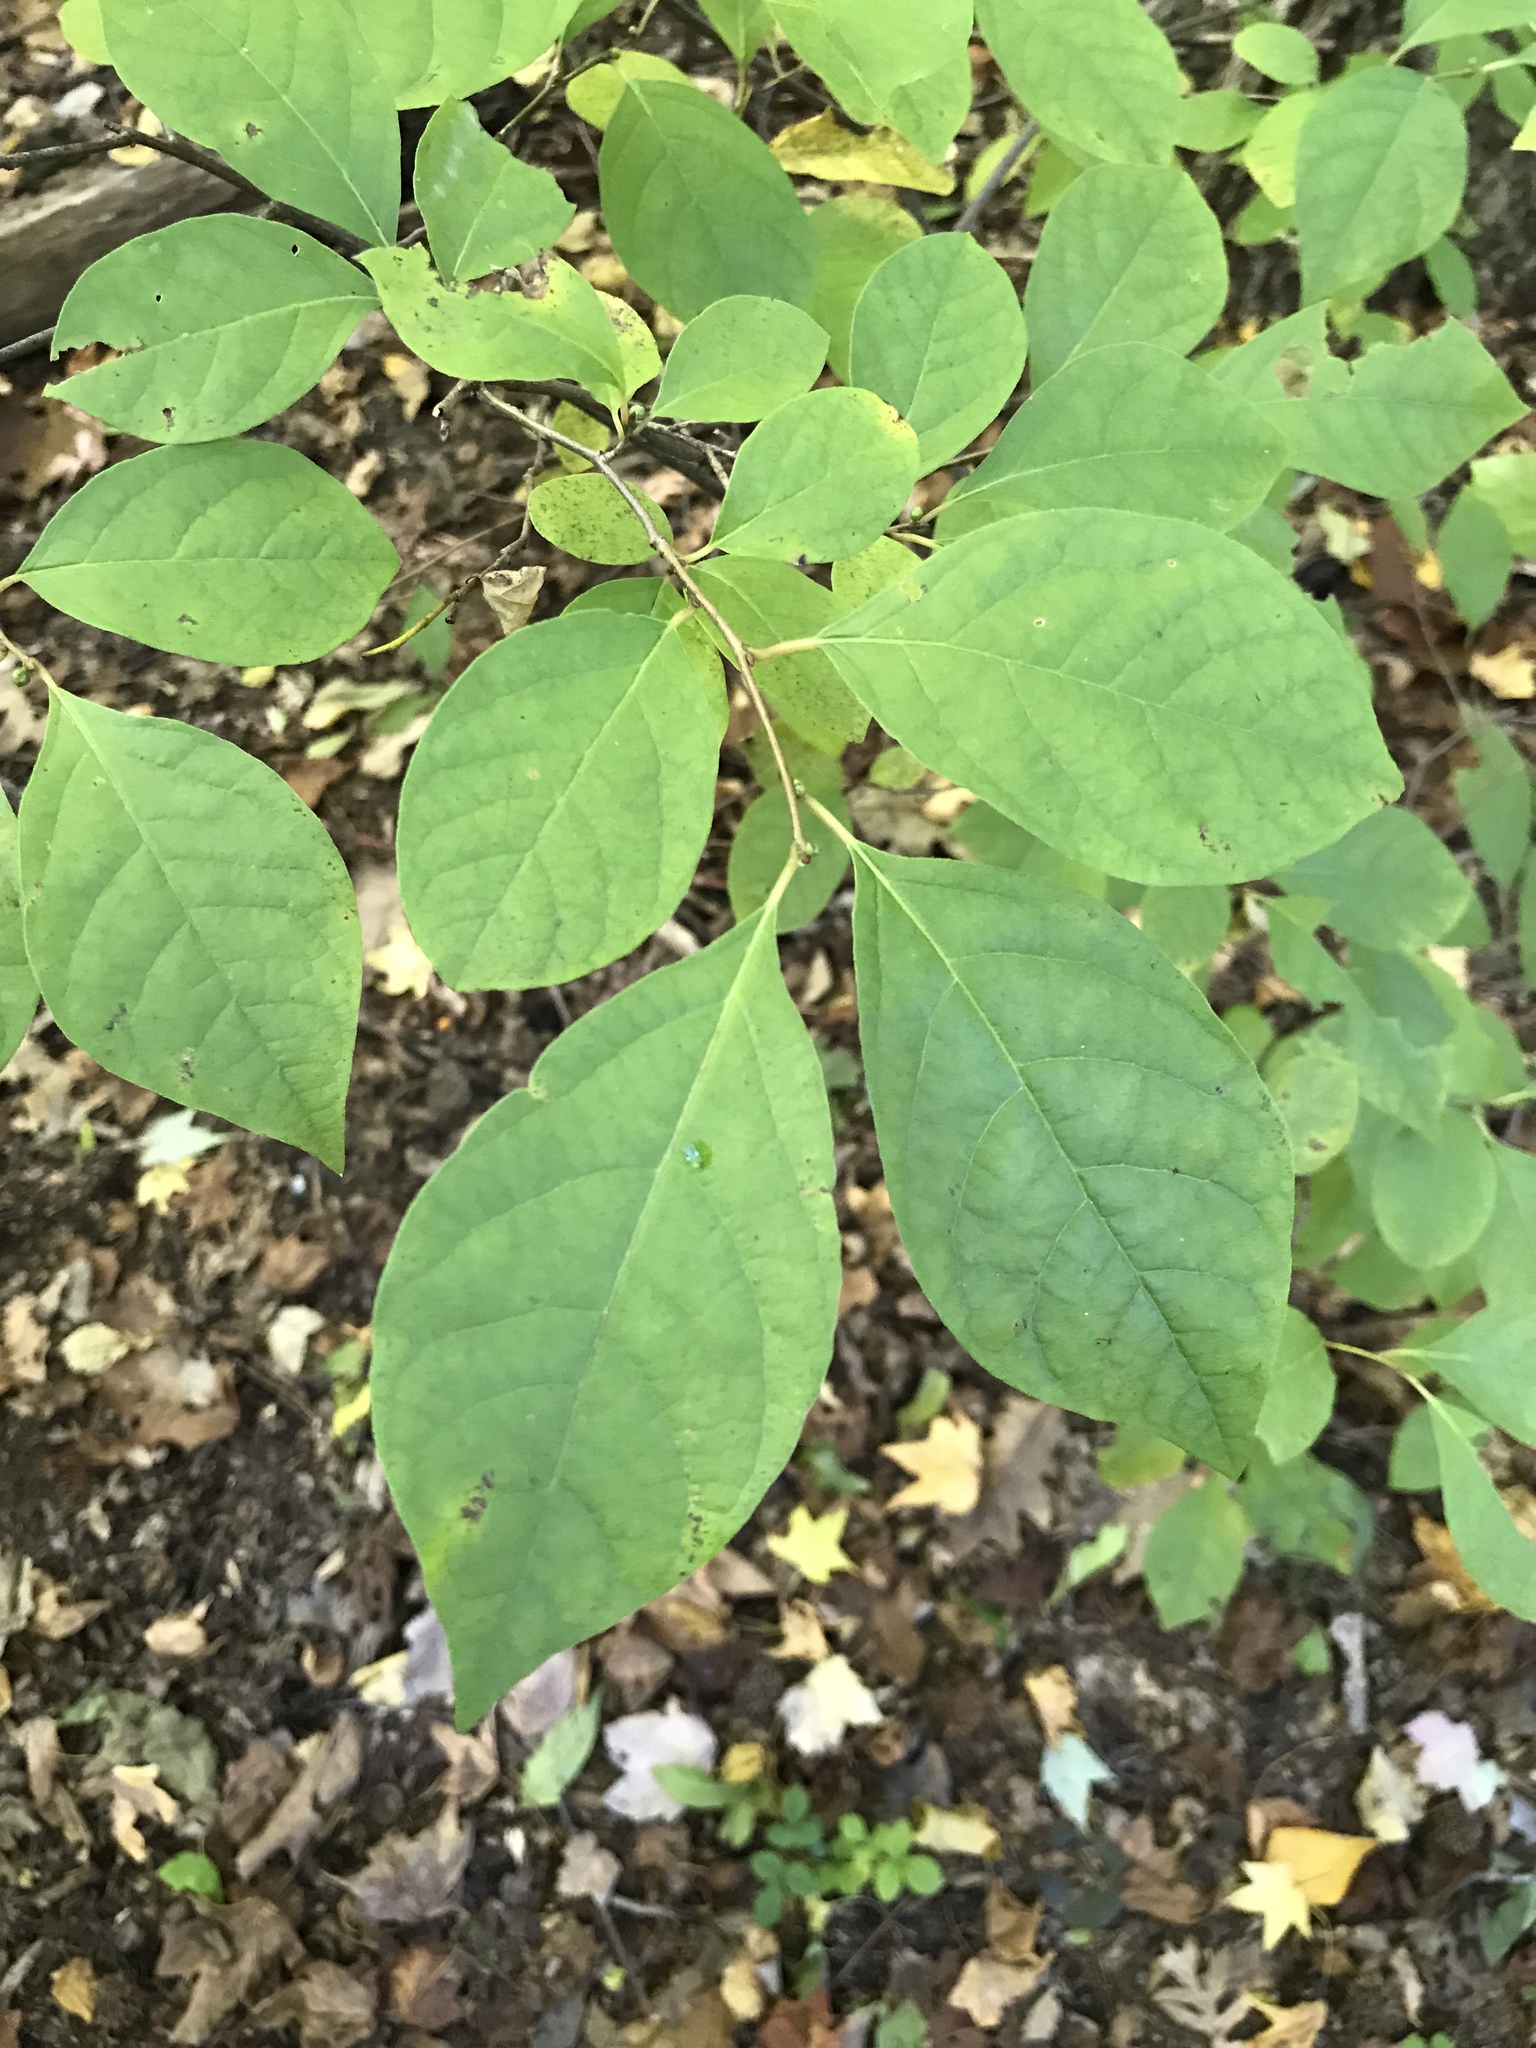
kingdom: Plantae
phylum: Tracheophyta
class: Magnoliopsida
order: Laurales
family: Lauraceae
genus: Lindera
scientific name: Lindera benzoin
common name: Spicebush
